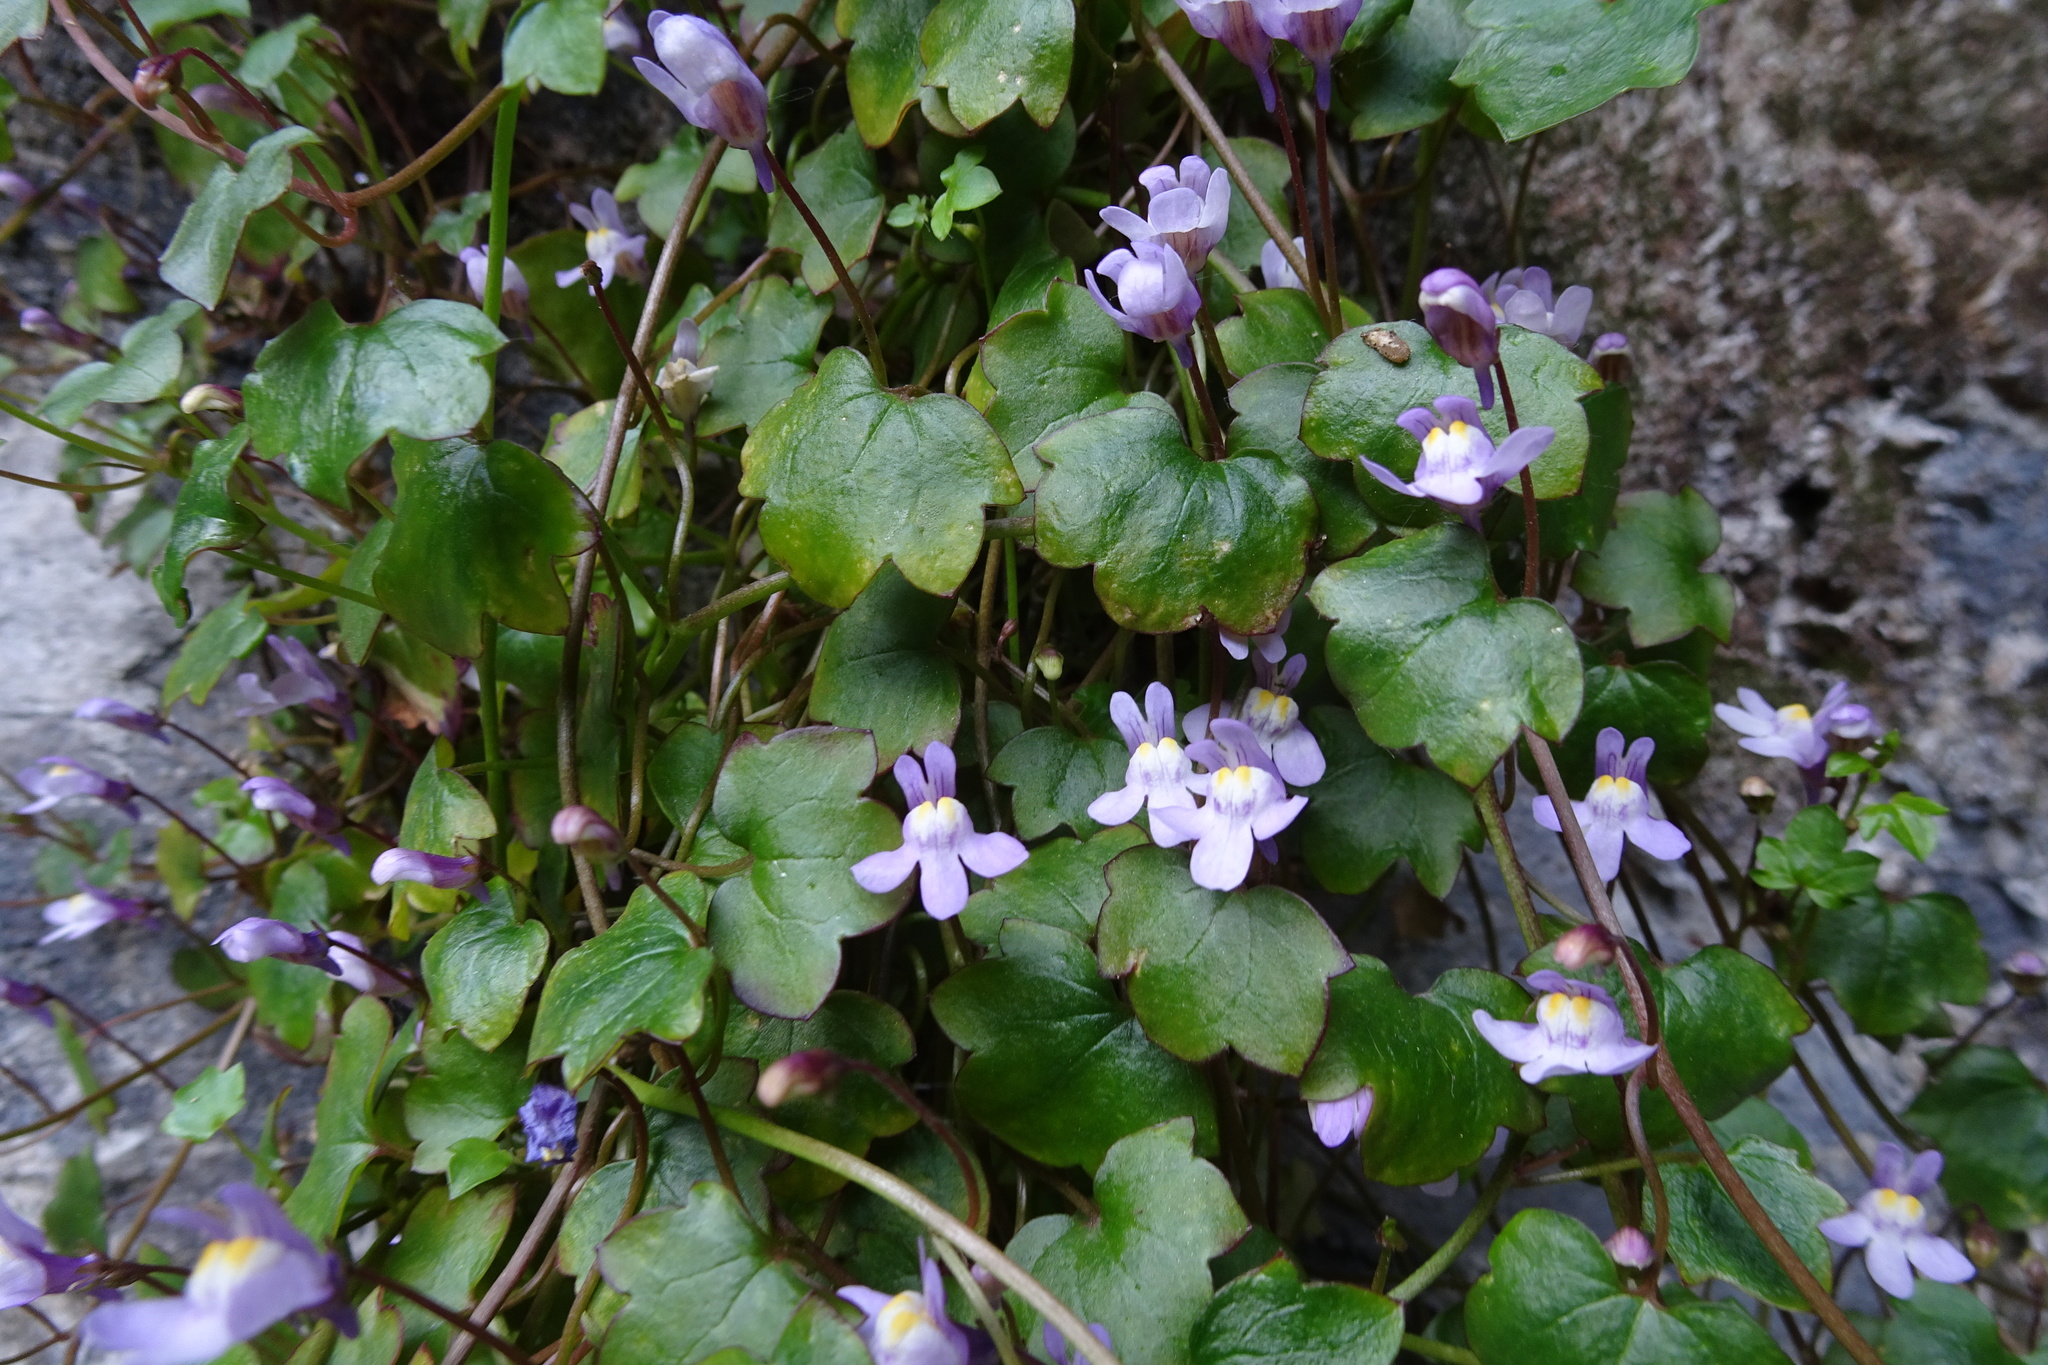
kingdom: Plantae
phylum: Tracheophyta
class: Magnoliopsida
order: Lamiales
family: Plantaginaceae
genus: Cymbalaria
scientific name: Cymbalaria muralis
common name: Ivy-leaved toadflax
